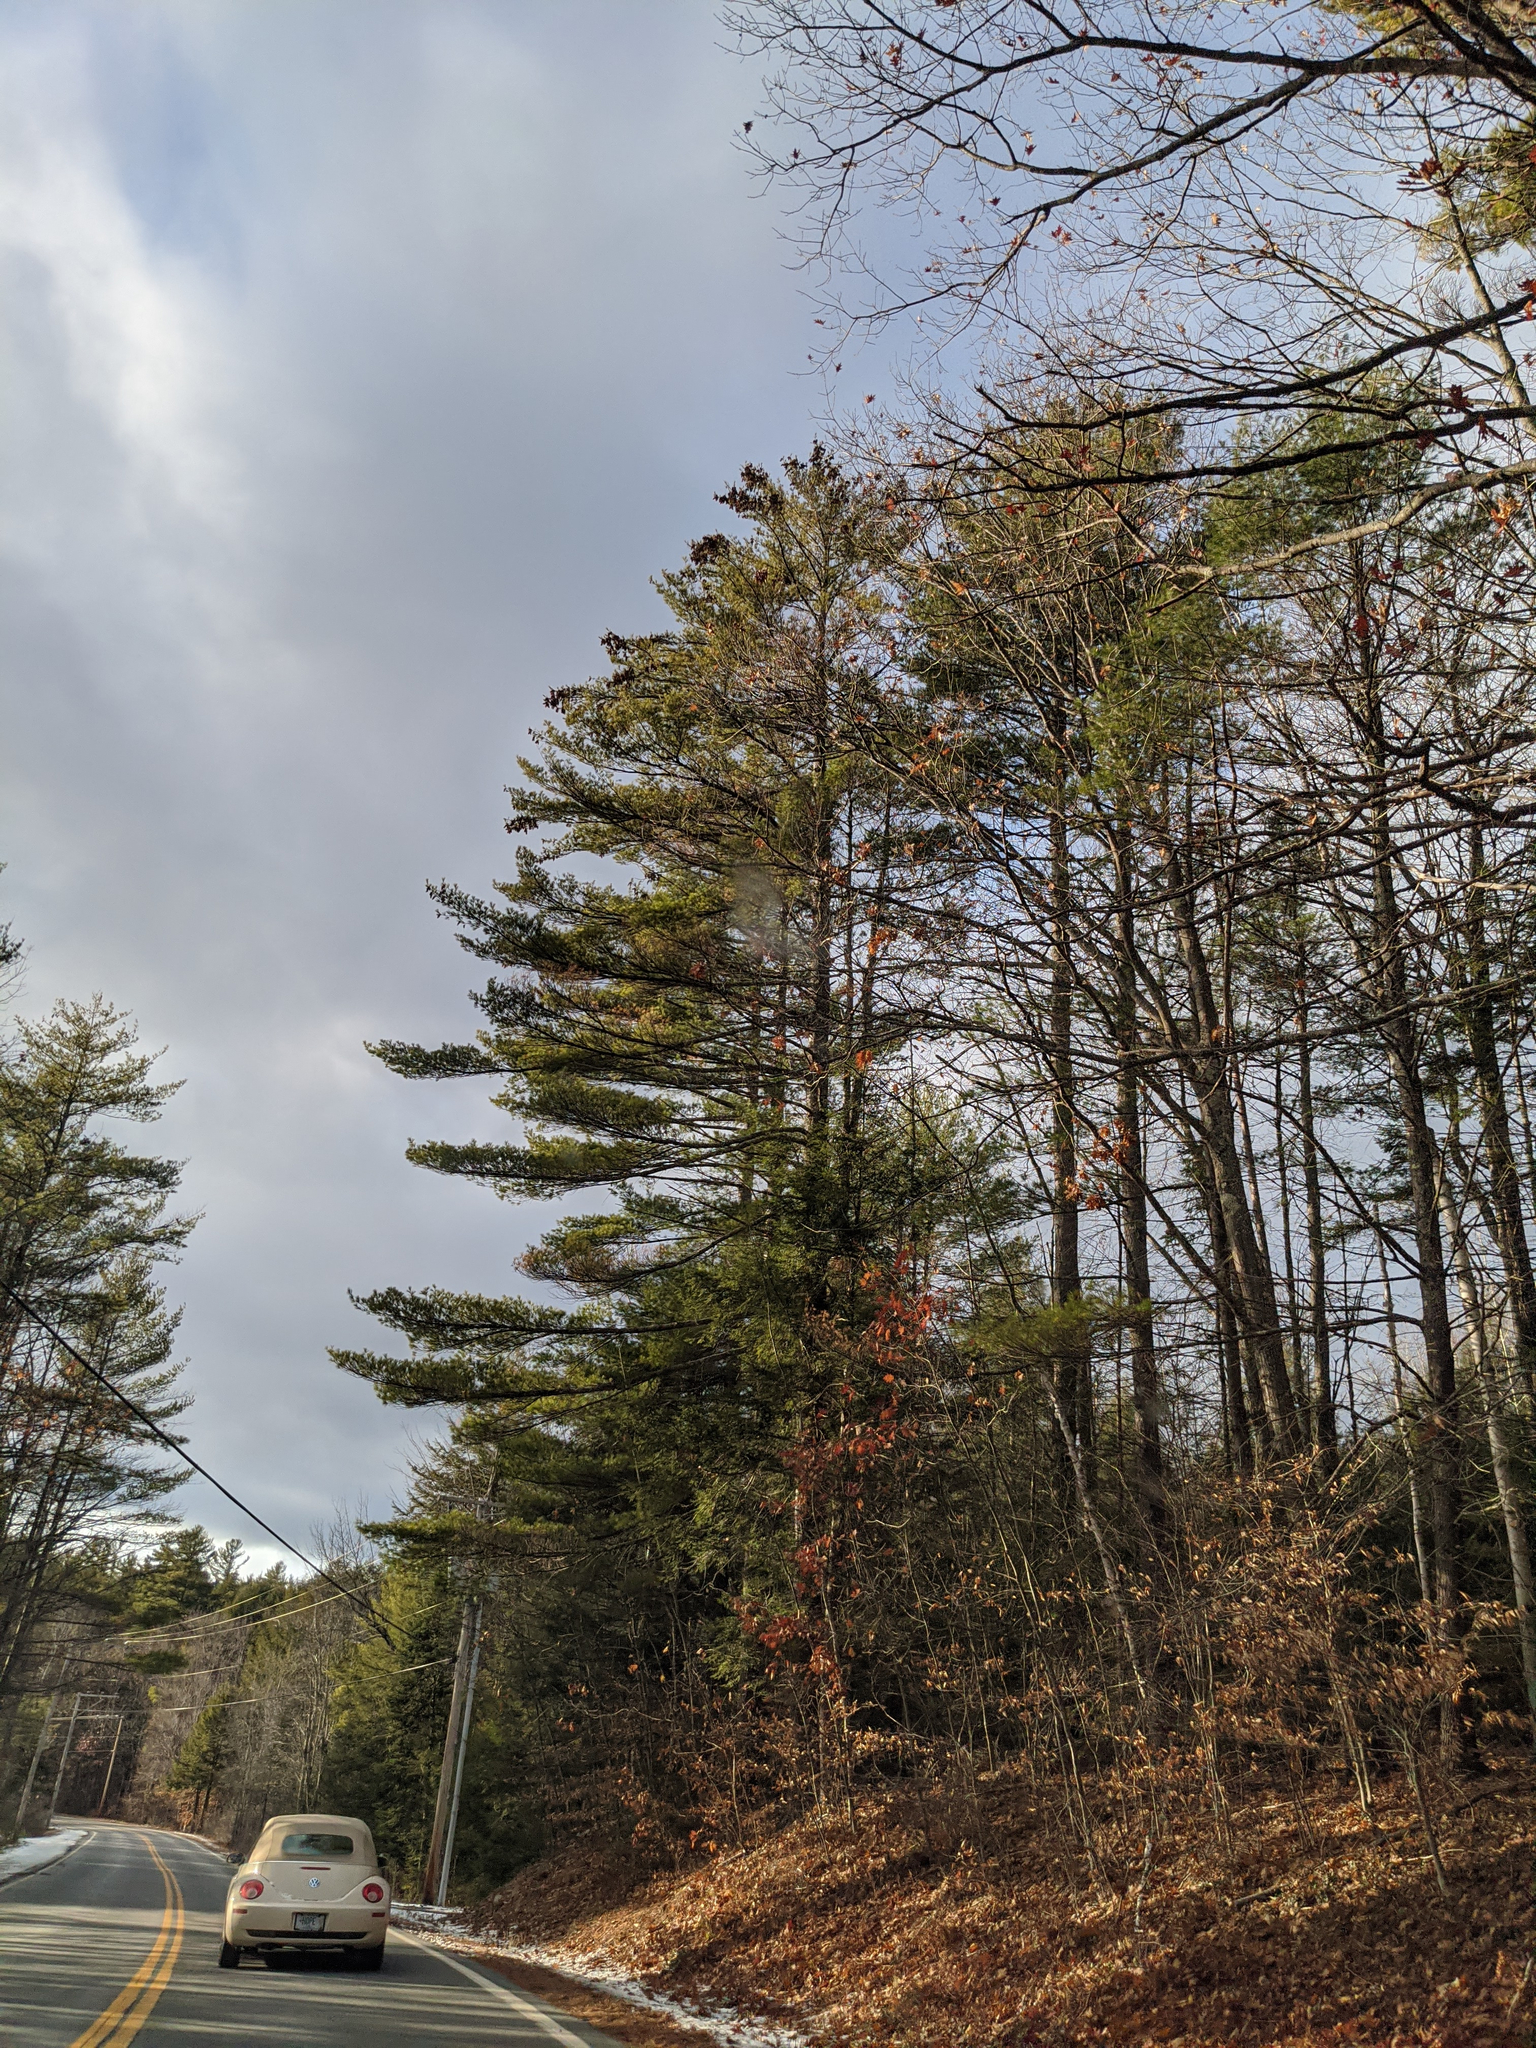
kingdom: Plantae
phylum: Tracheophyta
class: Pinopsida
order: Pinales
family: Pinaceae
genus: Pinus
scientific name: Pinus strobus
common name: Weymouth pine
